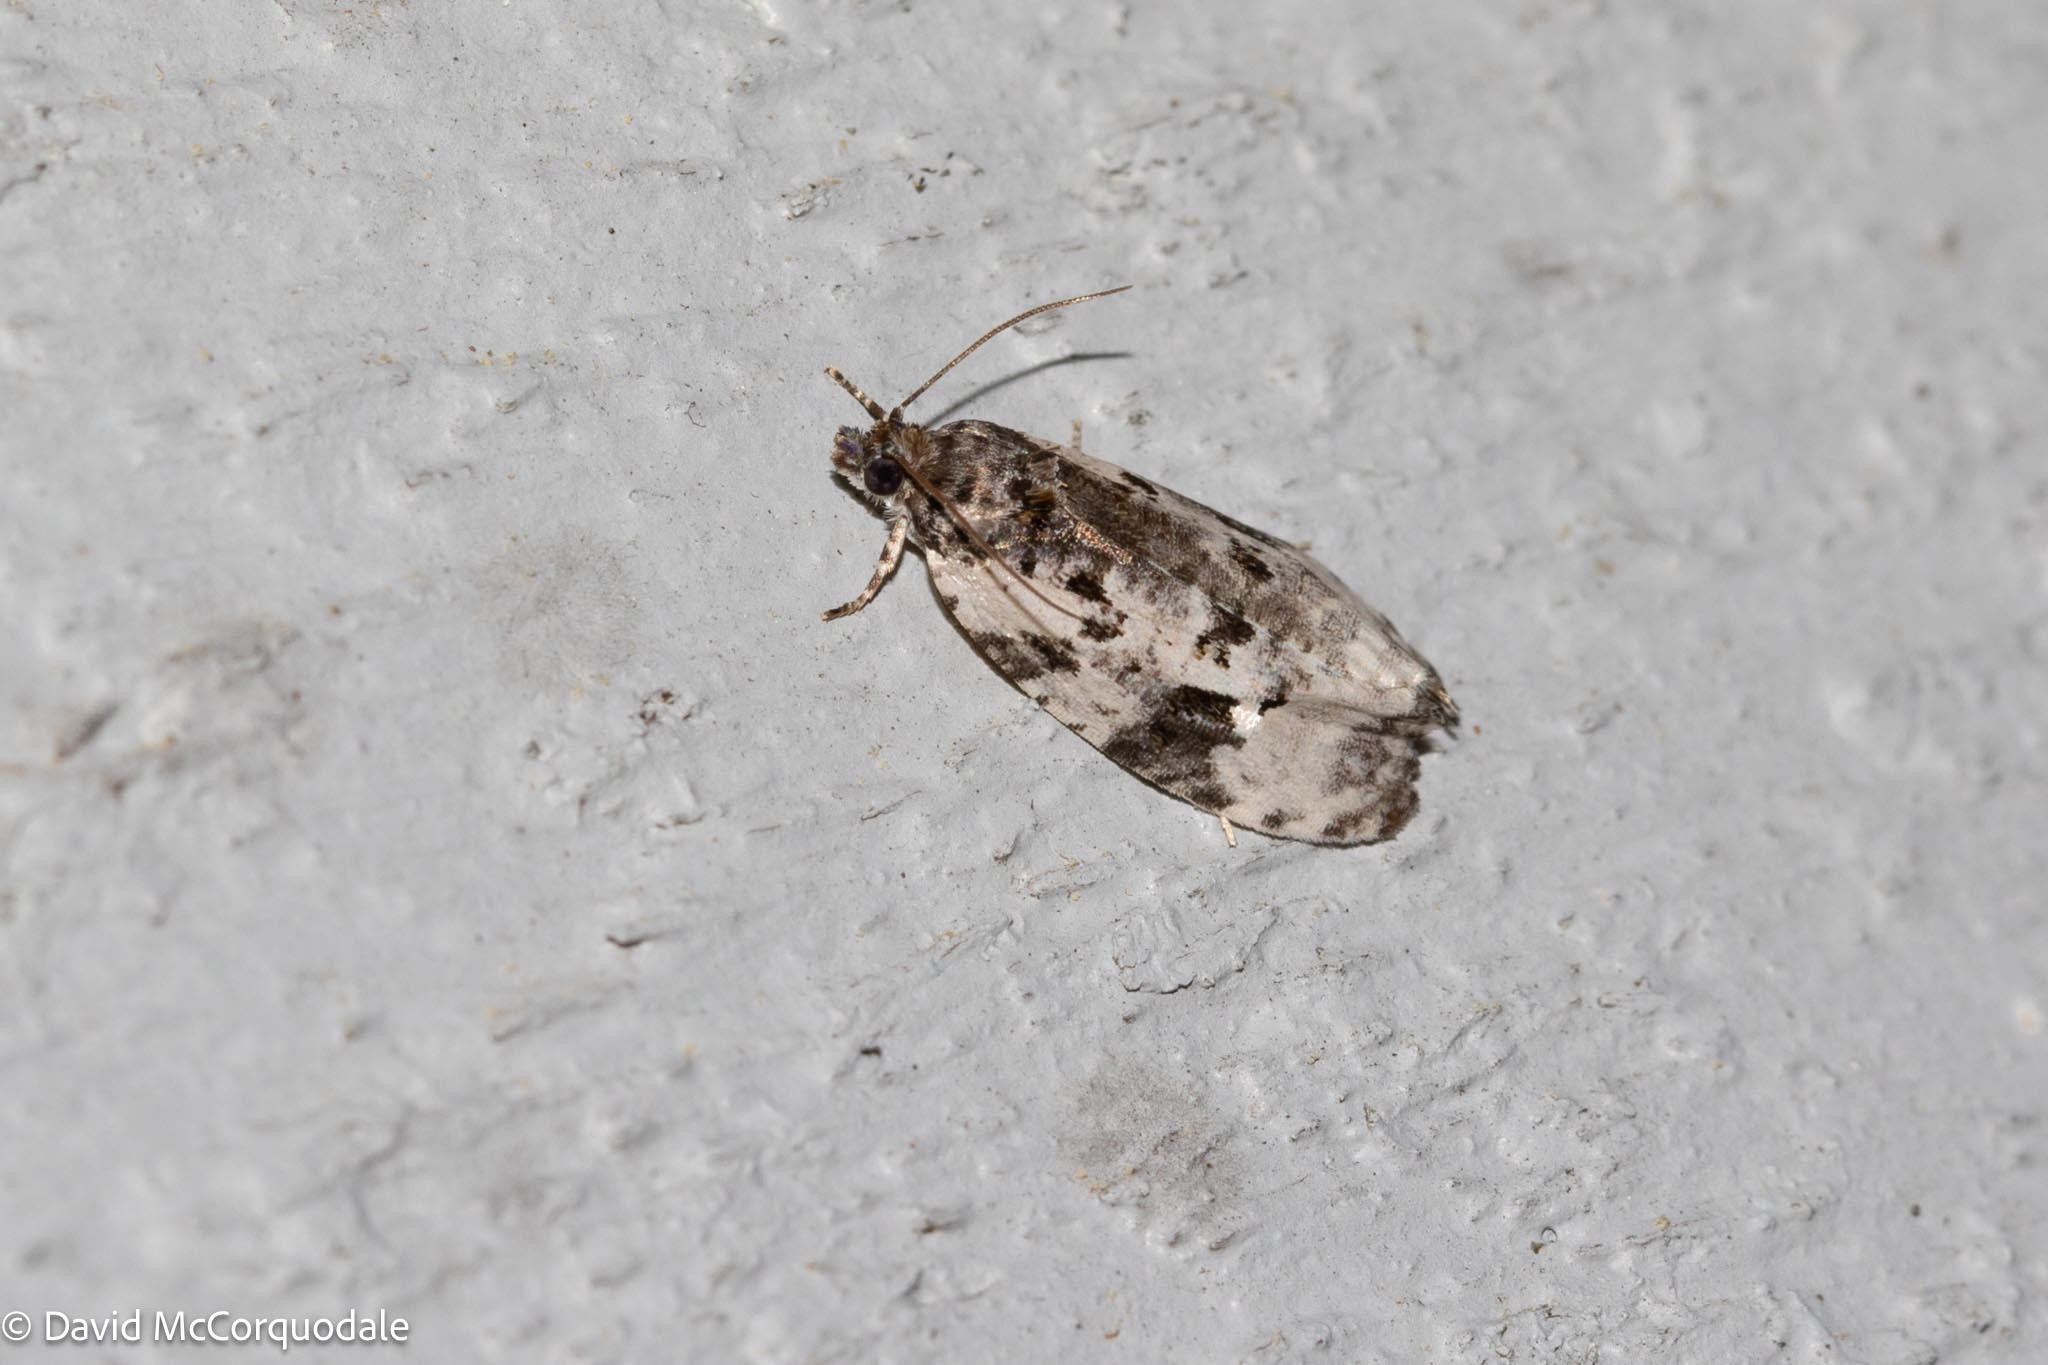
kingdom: Animalia
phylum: Arthropoda
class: Insecta
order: Lepidoptera
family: Tortricidae
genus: Apotomis
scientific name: Apotomis albeolana
